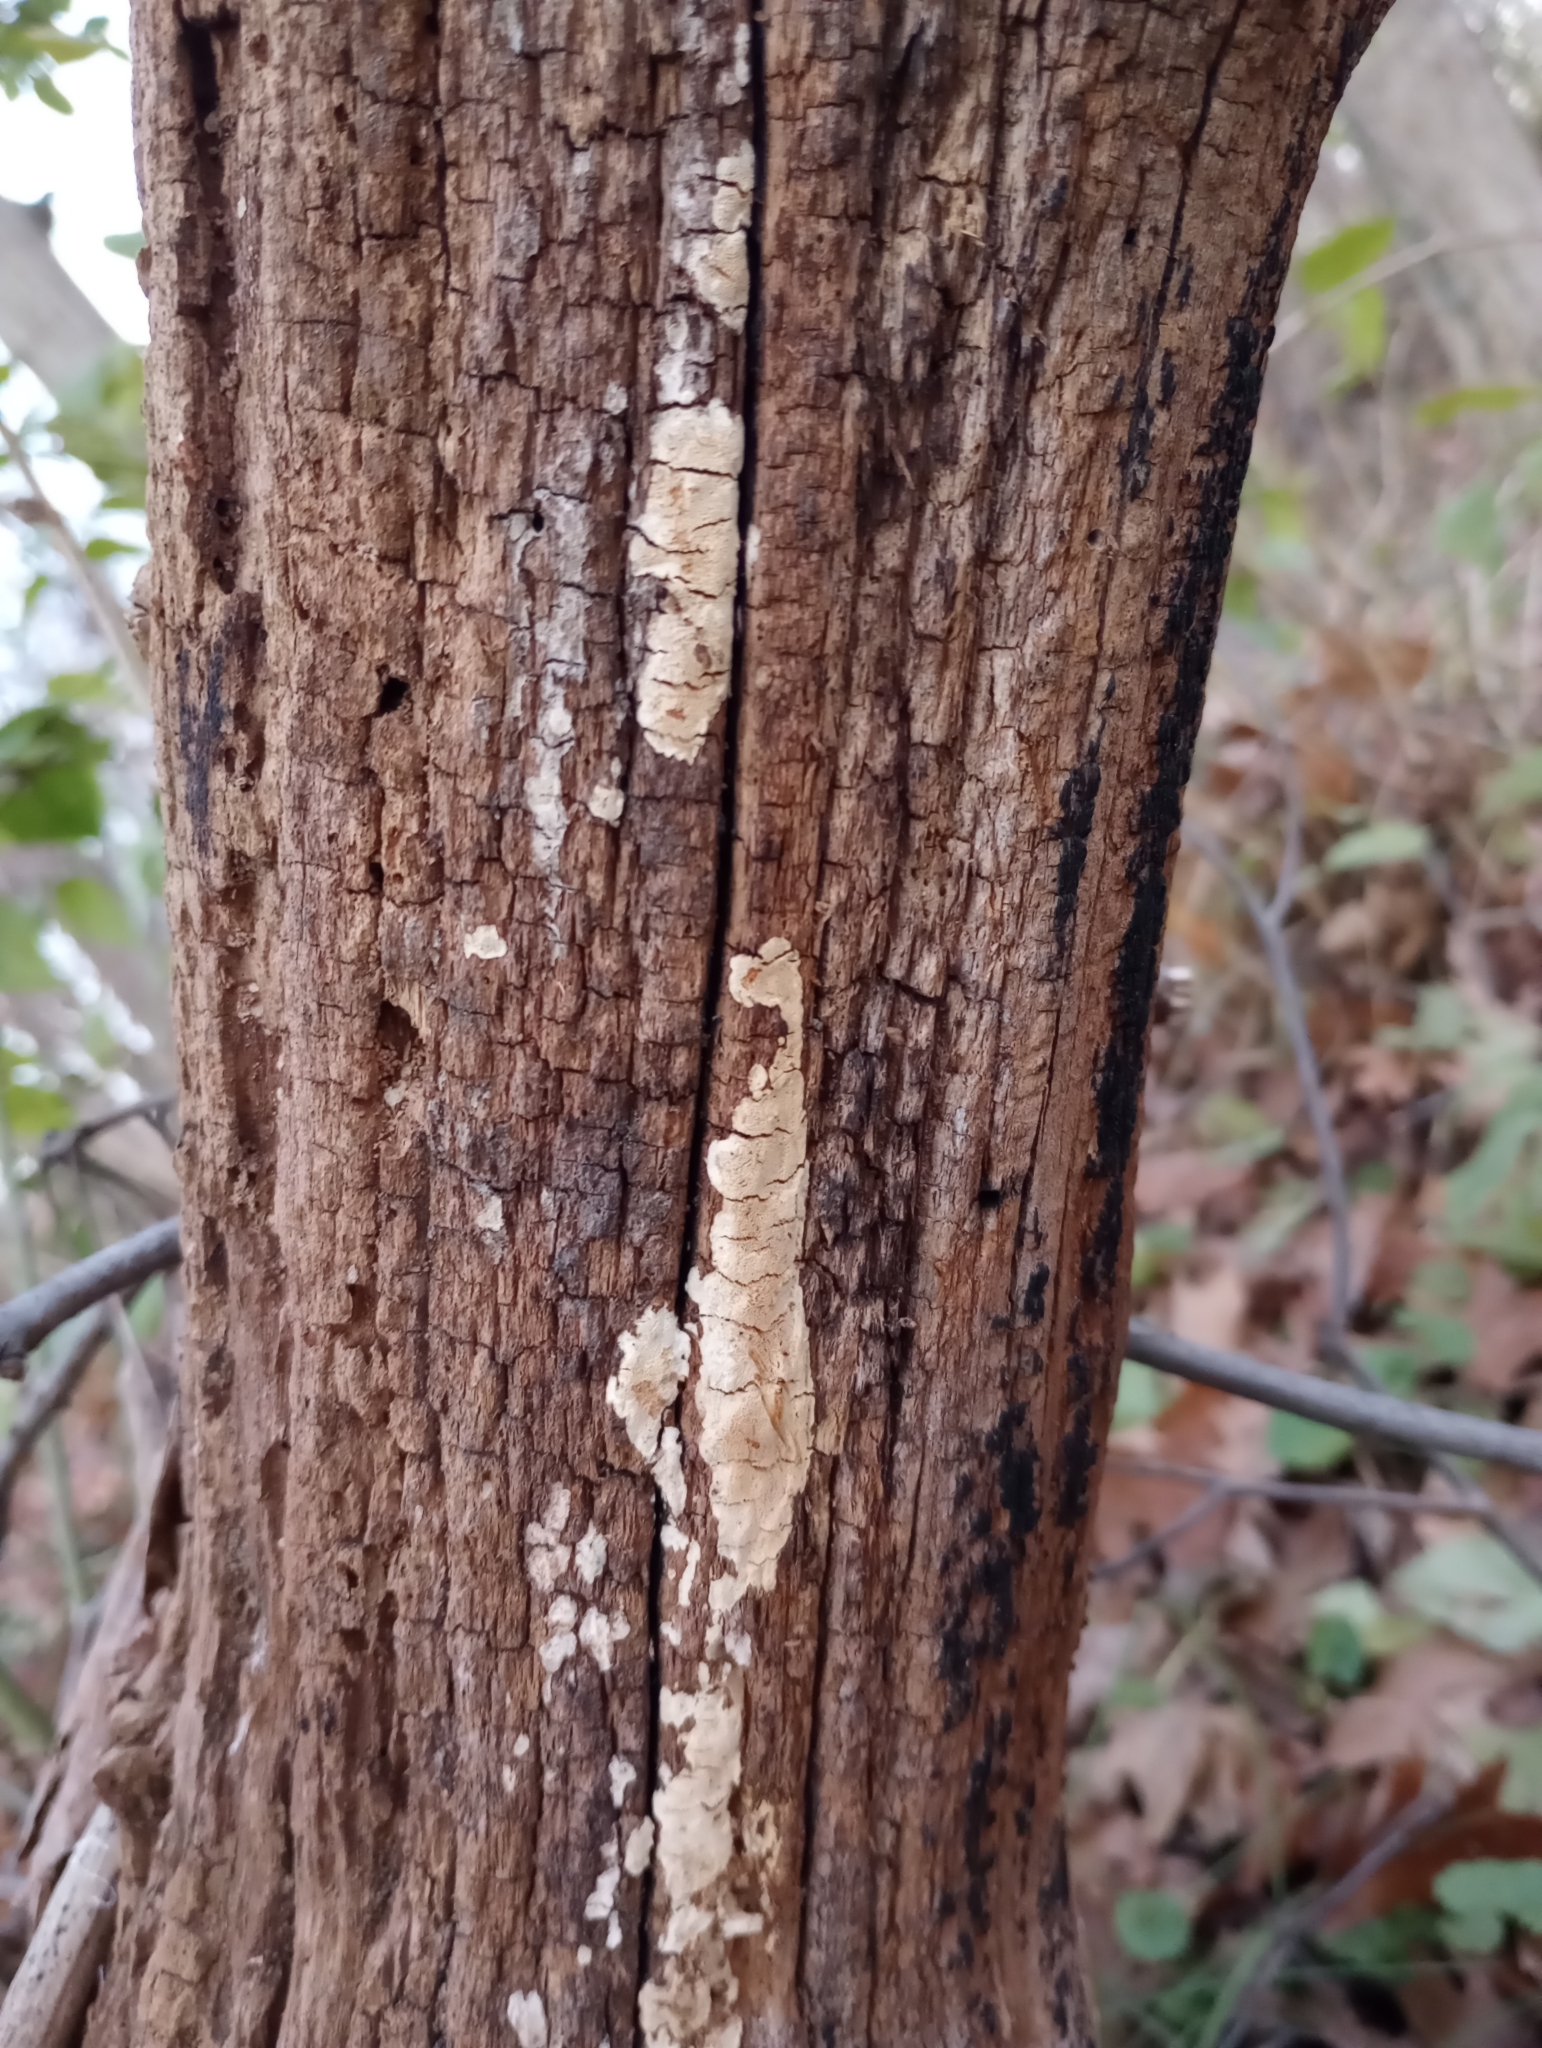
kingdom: Animalia
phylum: Arthropoda
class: Insecta
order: Hemiptera
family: Fulgoridae
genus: Lycorma
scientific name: Lycorma delicatula
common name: Spotted lanternfly
